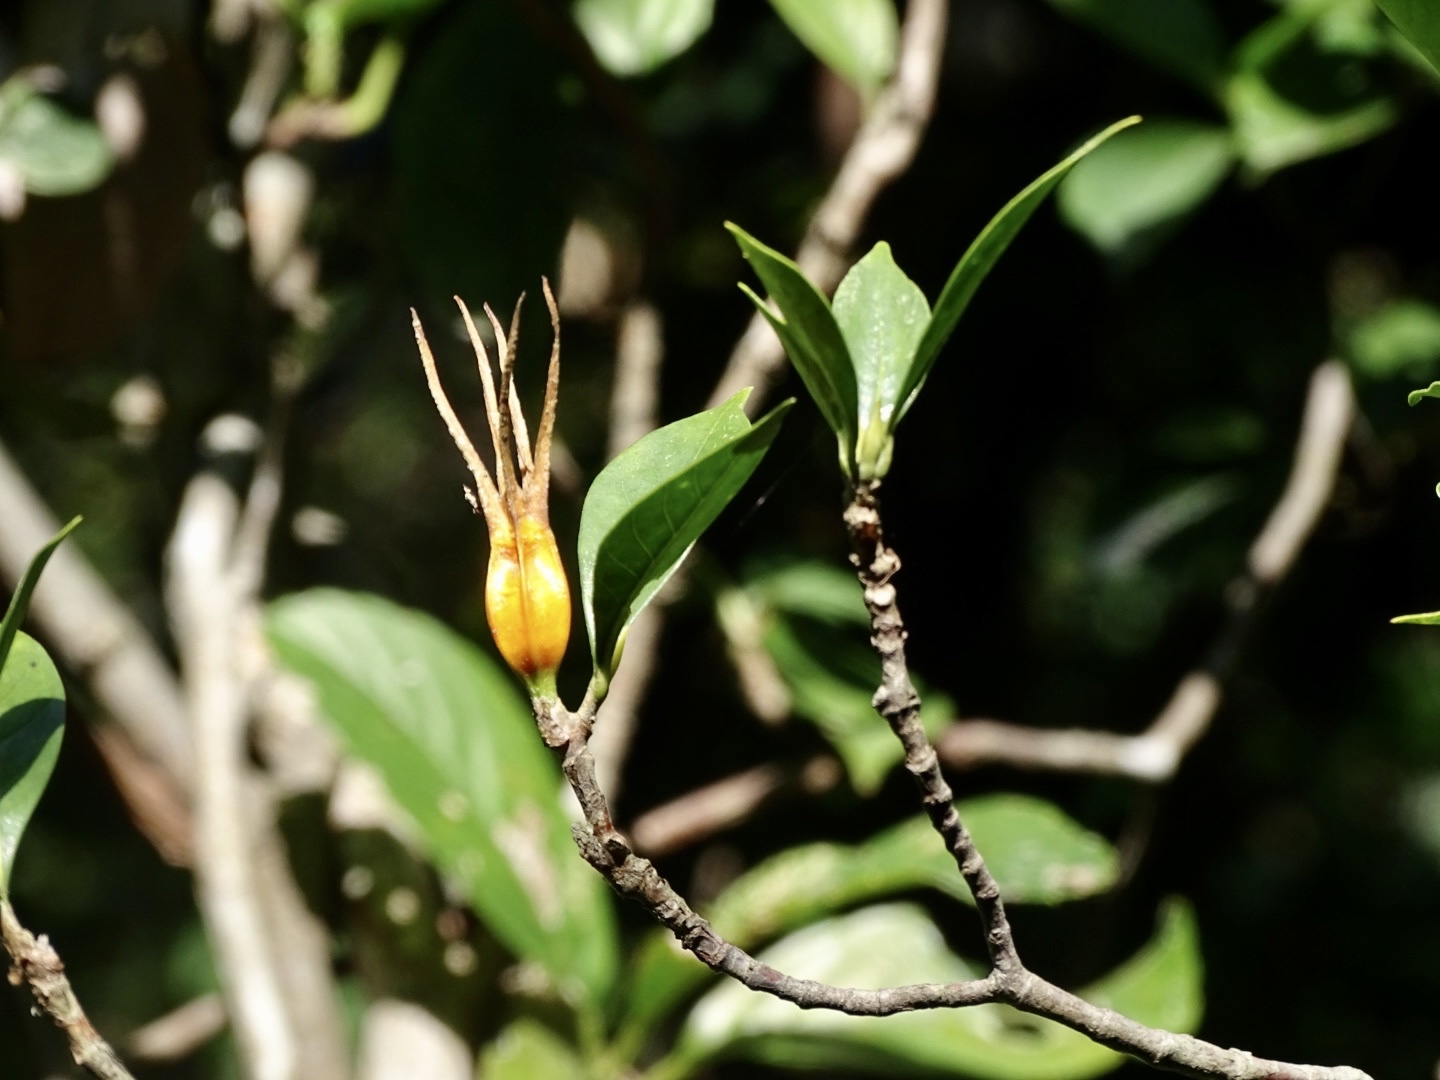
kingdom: Plantae
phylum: Tracheophyta
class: Magnoliopsida
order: Gentianales
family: Rubiaceae
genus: Gardenia
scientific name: Gardenia jasminoides
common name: Cape-jasmine
